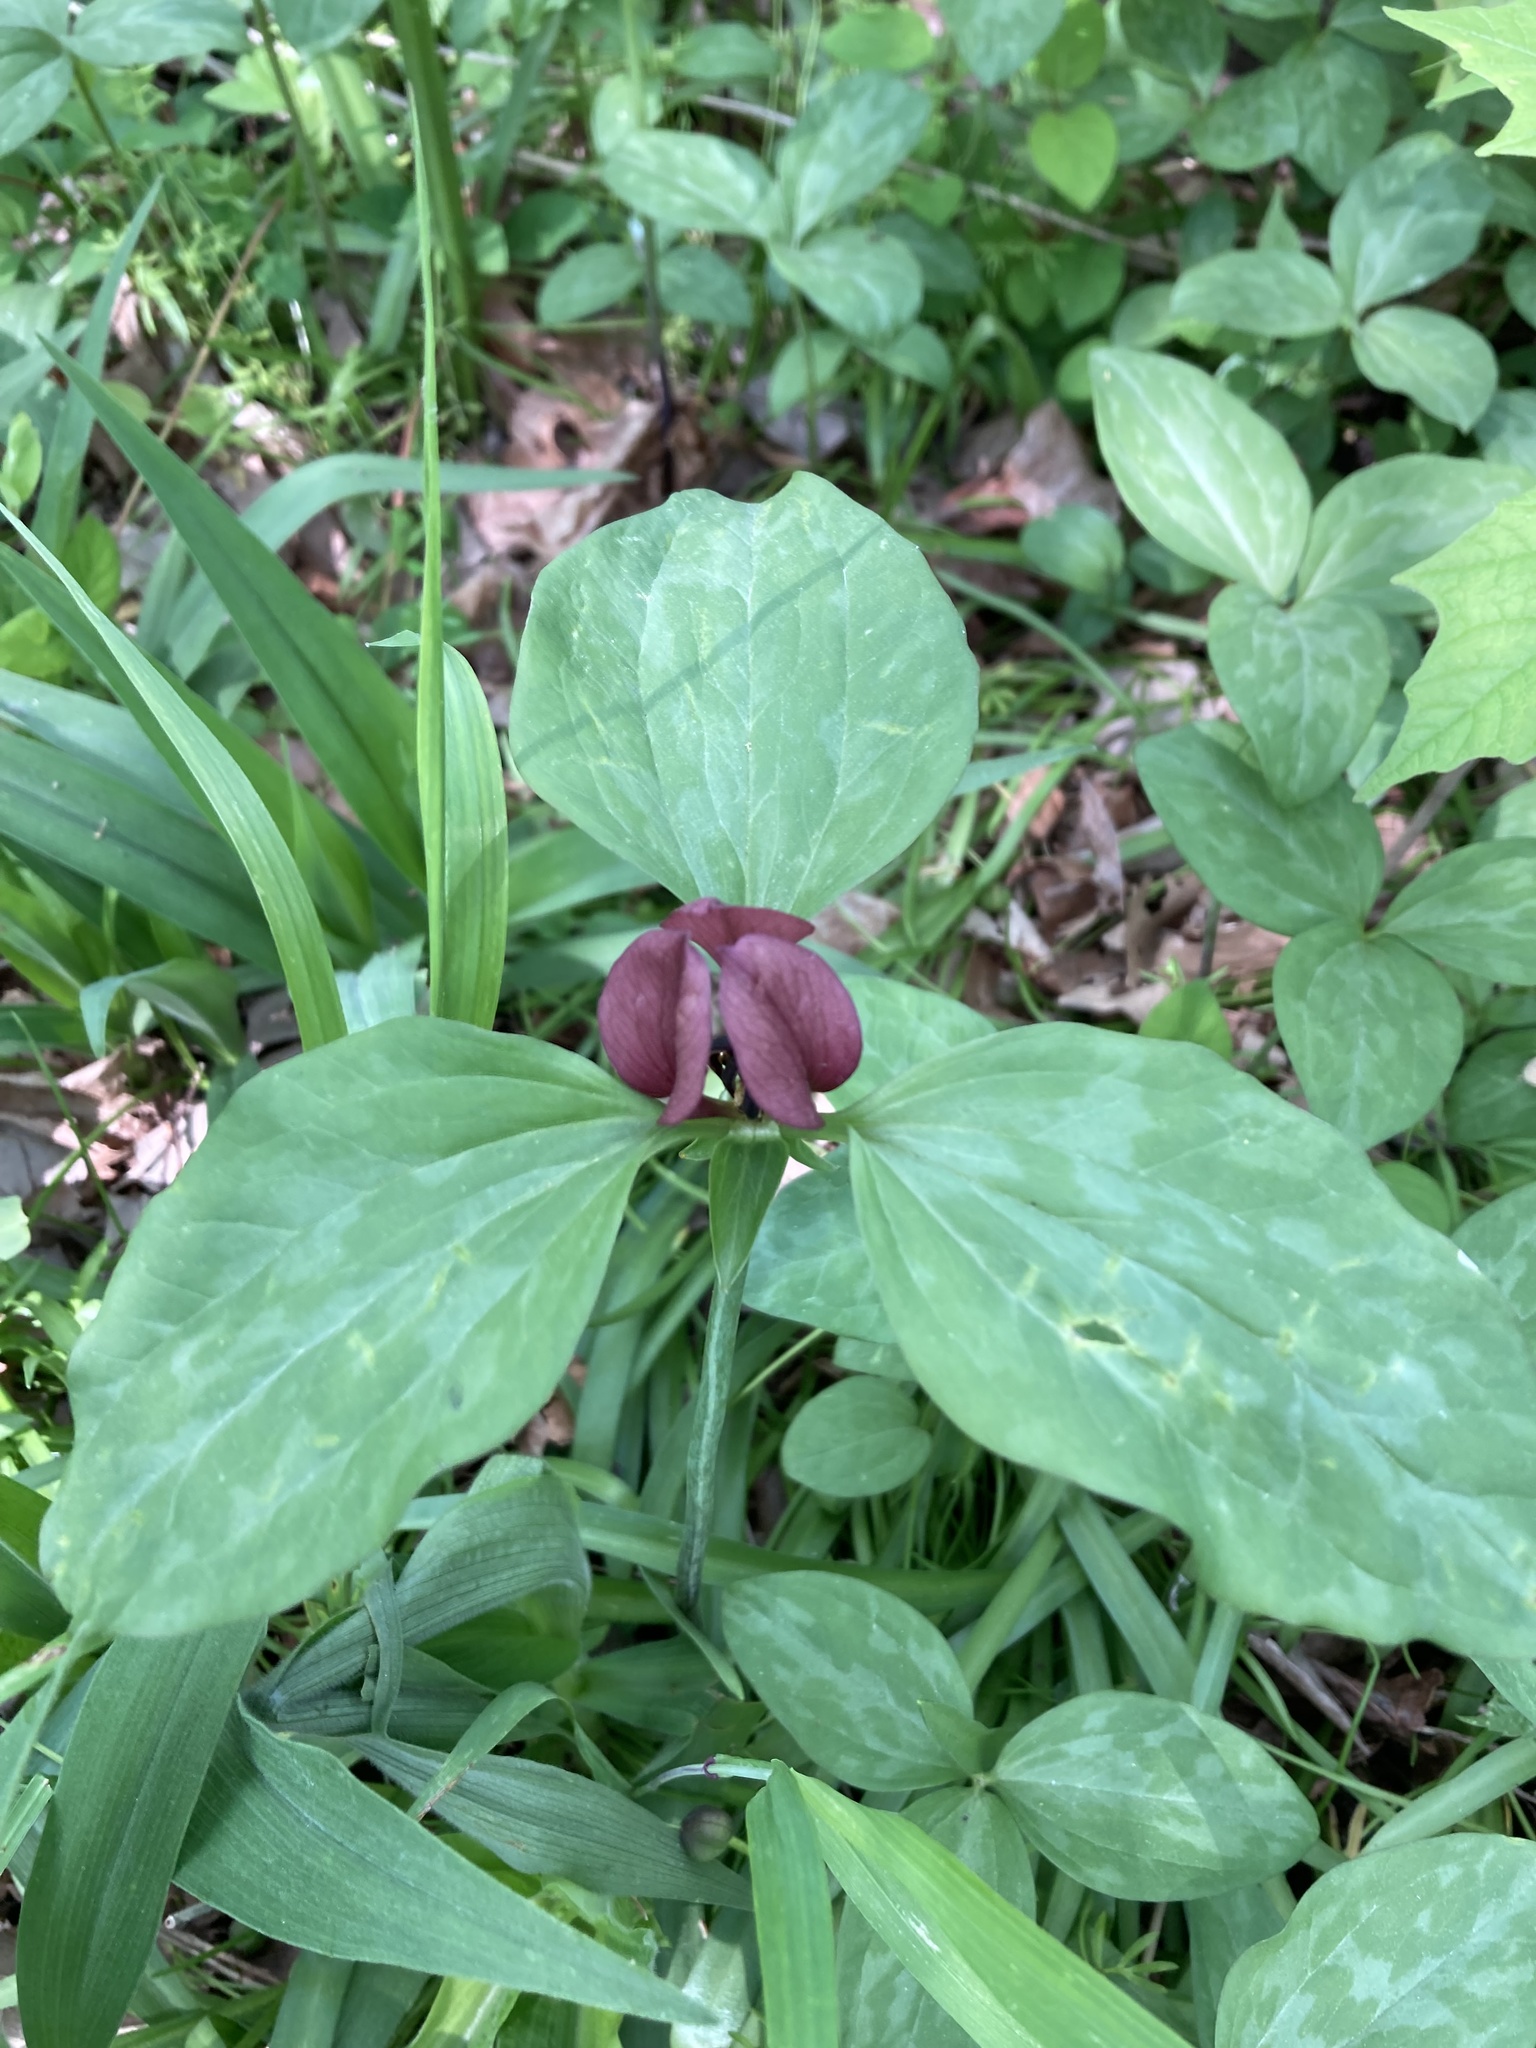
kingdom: Plantae
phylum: Tracheophyta
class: Liliopsida
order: Liliales
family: Melanthiaceae
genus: Trillium
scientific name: Trillium recurvatum
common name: Bloody butcher
